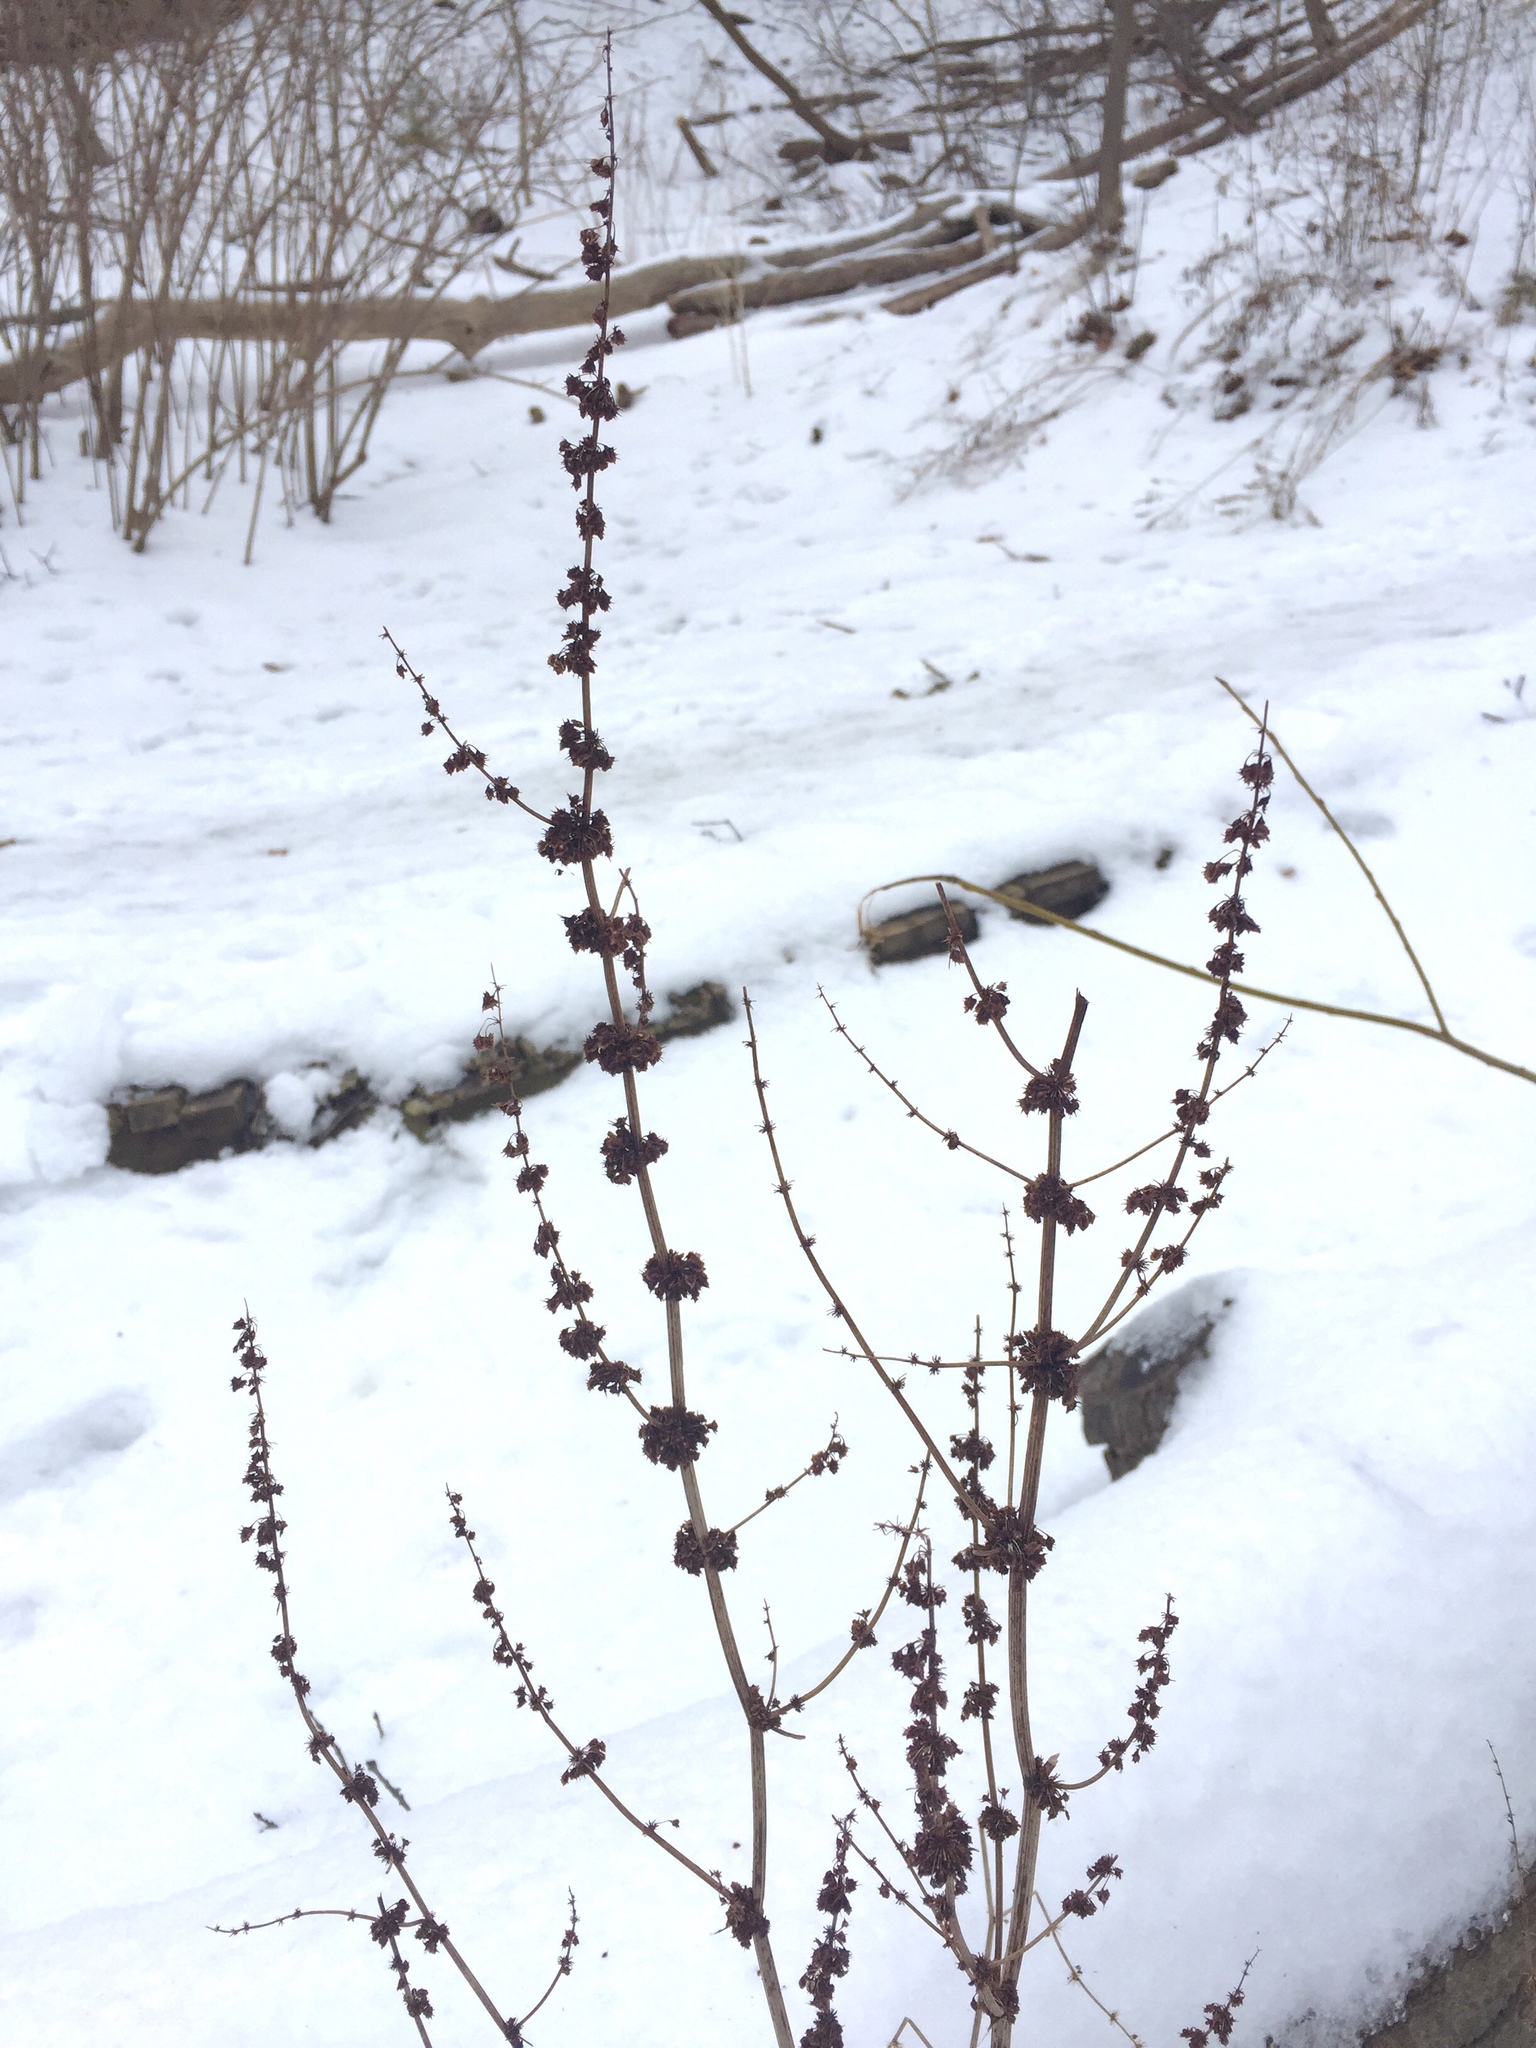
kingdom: Plantae
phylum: Tracheophyta
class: Magnoliopsida
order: Lamiales
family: Lamiaceae
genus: Leonurus
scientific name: Leonurus cardiaca
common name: Motherwort
